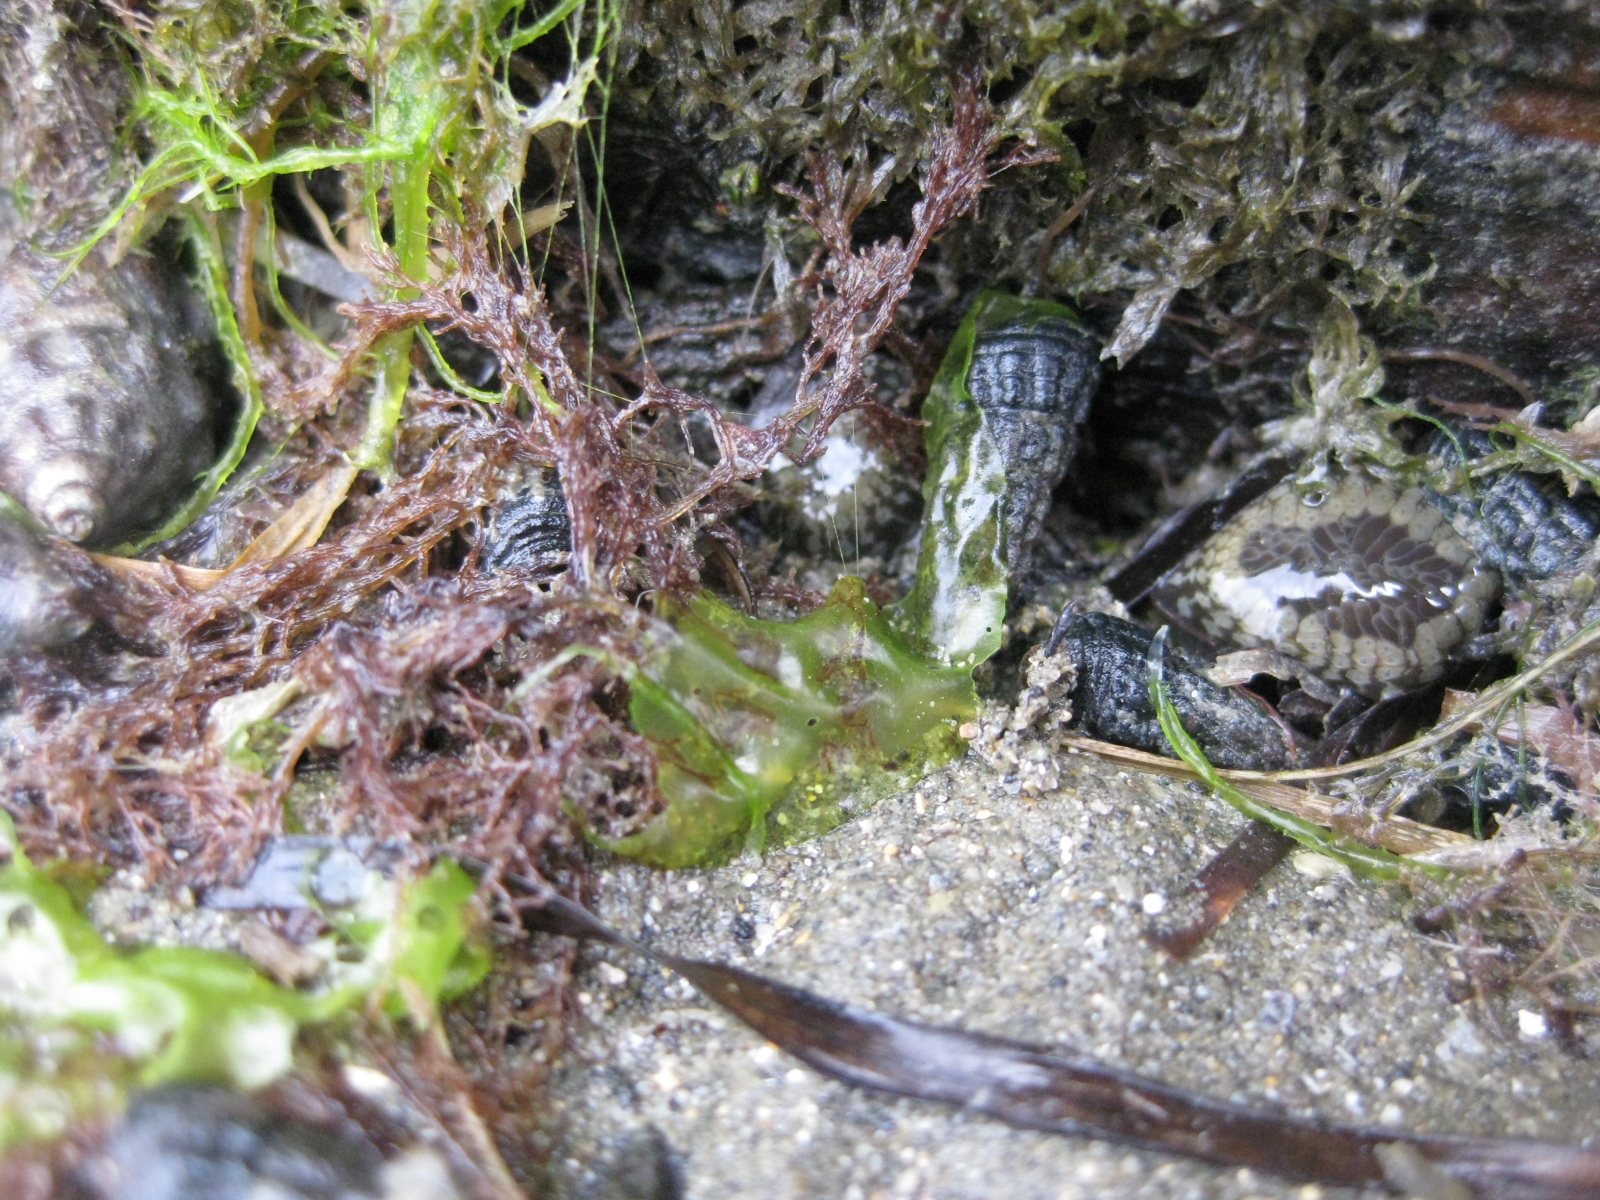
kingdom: Animalia
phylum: Mollusca
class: Gastropoda
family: Batillariidae
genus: Zeacumantus
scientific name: Zeacumantus subcarinatus
